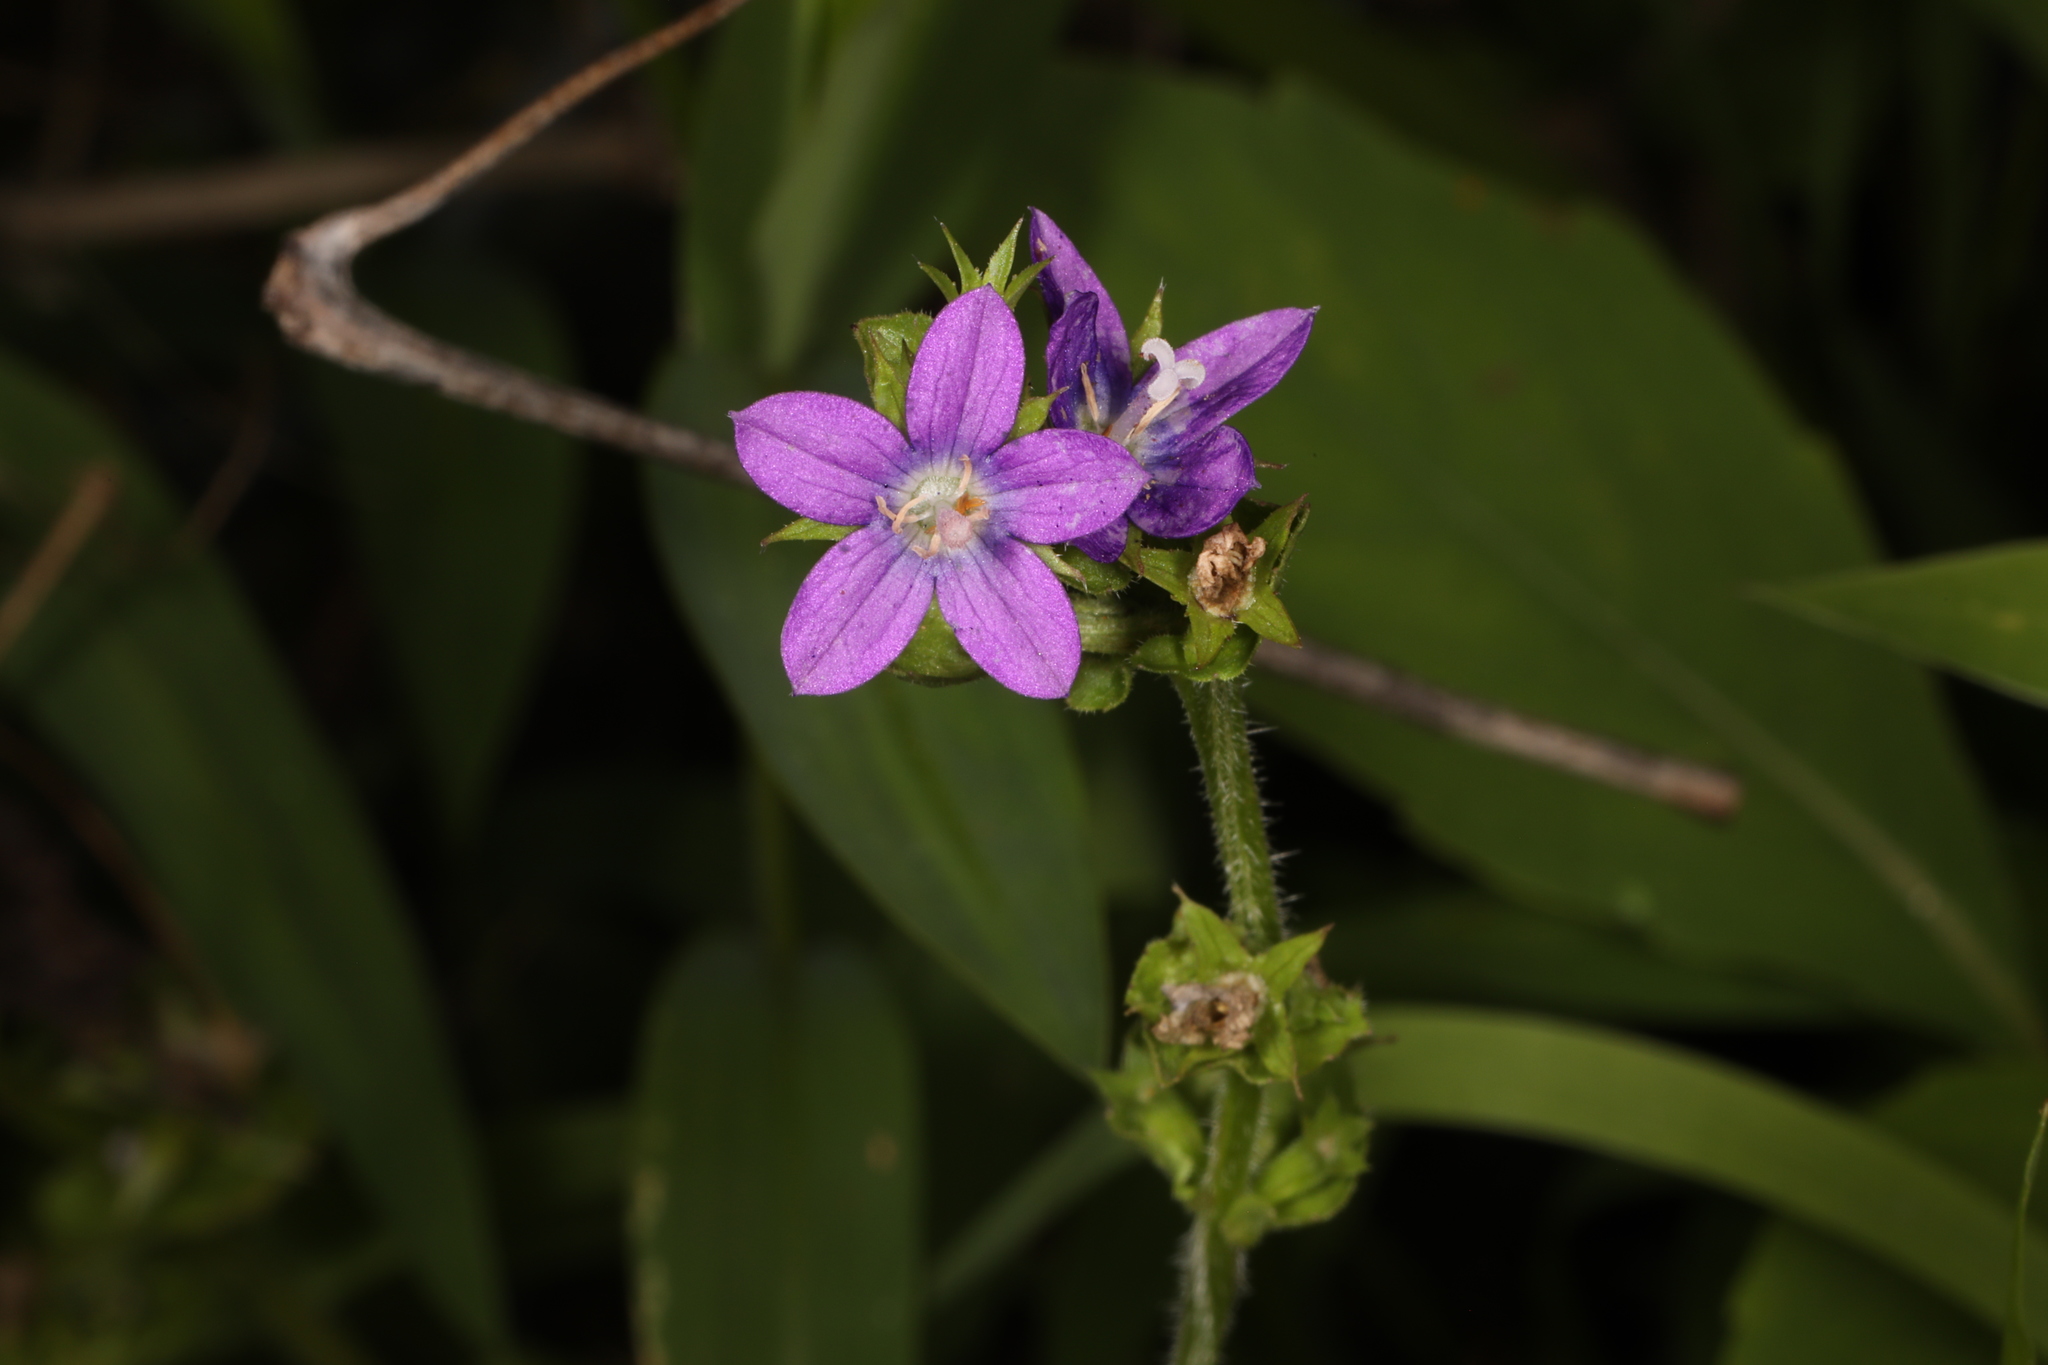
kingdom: Plantae
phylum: Tracheophyta
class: Magnoliopsida
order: Asterales
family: Campanulaceae
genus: Triodanis
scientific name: Triodanis perfoliata
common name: Clasping venus' looking-glass
